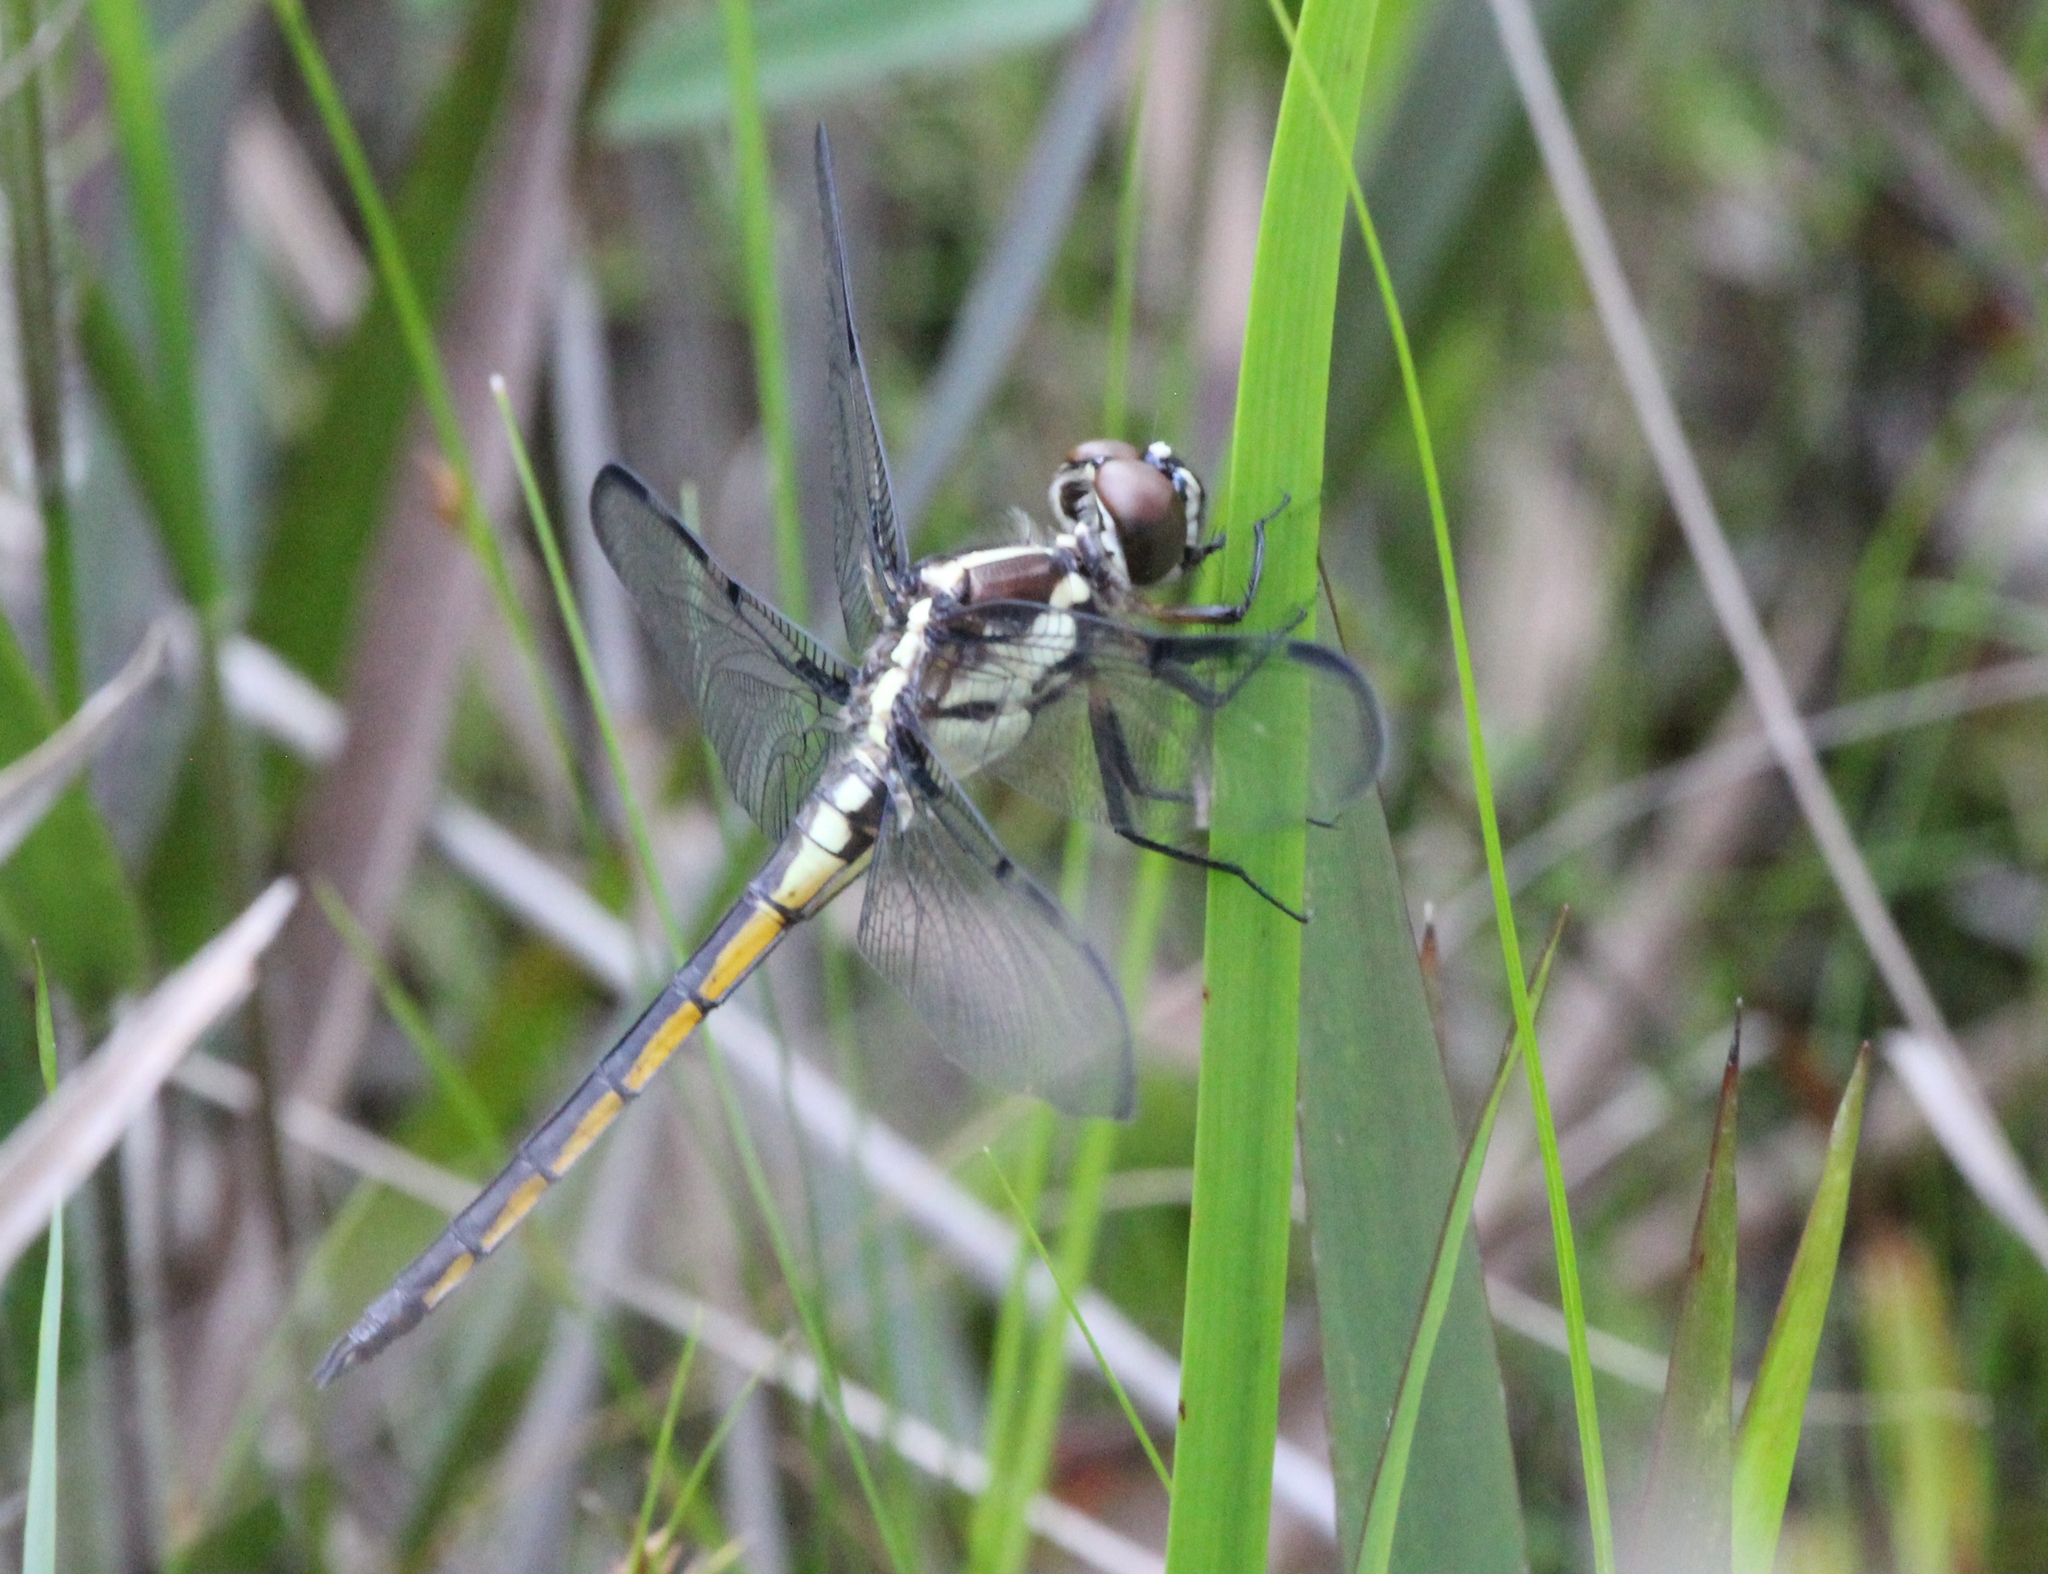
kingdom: Animalia
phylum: Arthropoda
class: Insecta
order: Odonata
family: Libellulidae
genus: Libellula
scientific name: Libellula axilena
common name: Bar-winged skimmer
